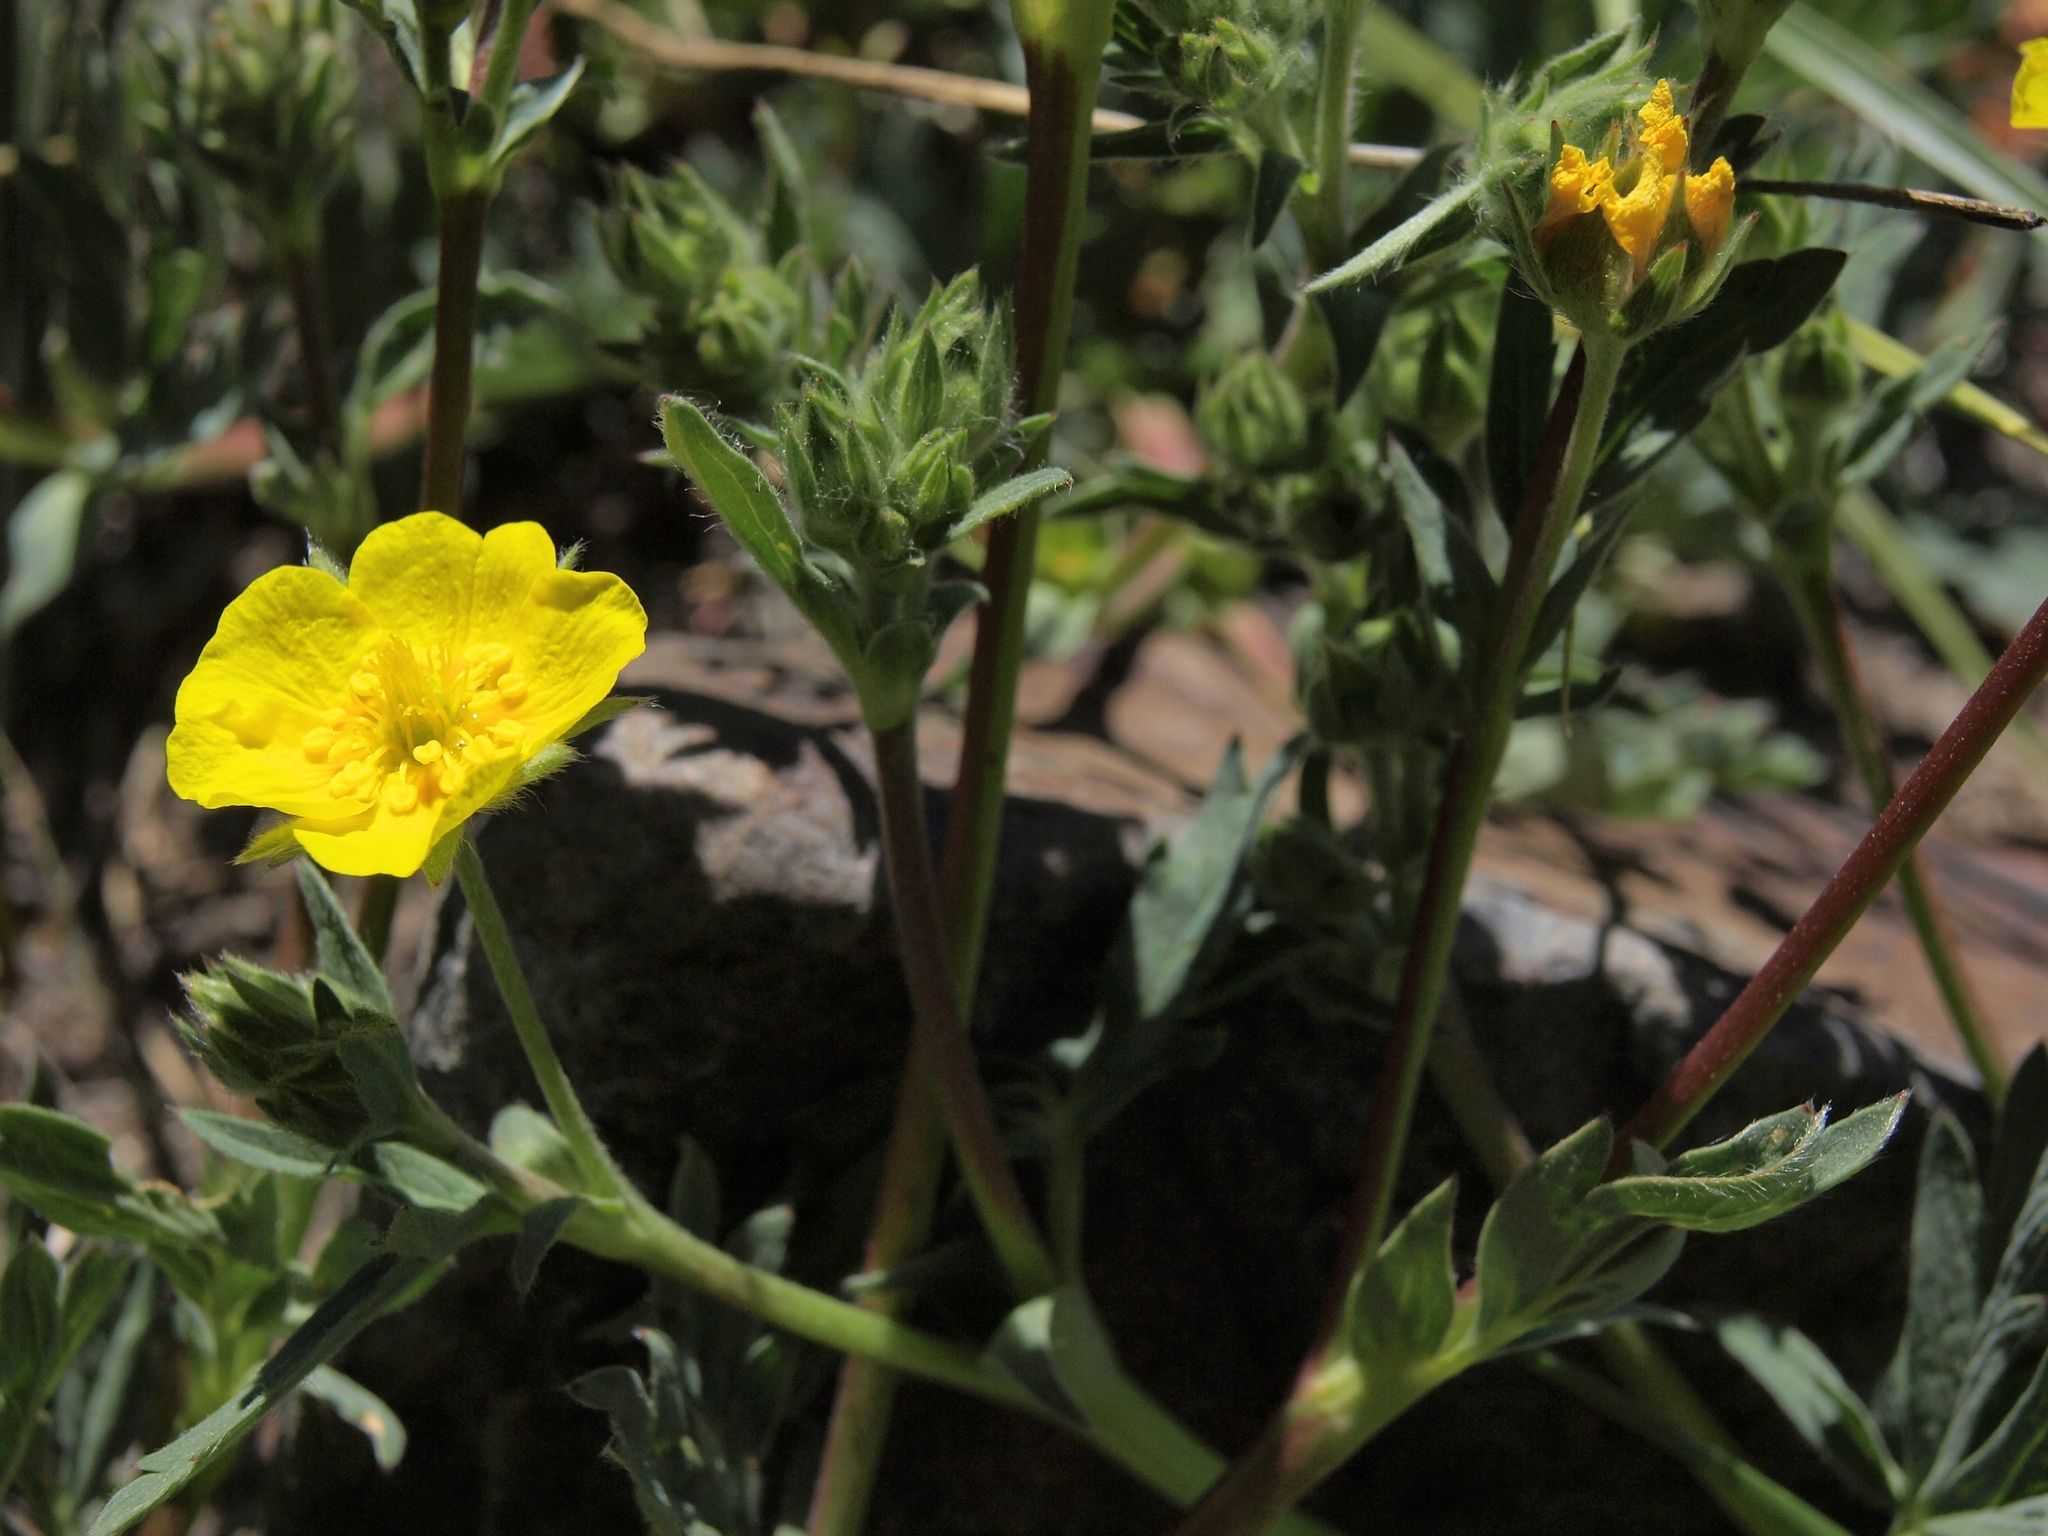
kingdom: Plantae
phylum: Tracheophyta
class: Magnoliopsida
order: Rosales
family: Rosaceae
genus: Potentilla
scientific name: Potentilla glaucophylla
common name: Blue-leaved cinquefoil
